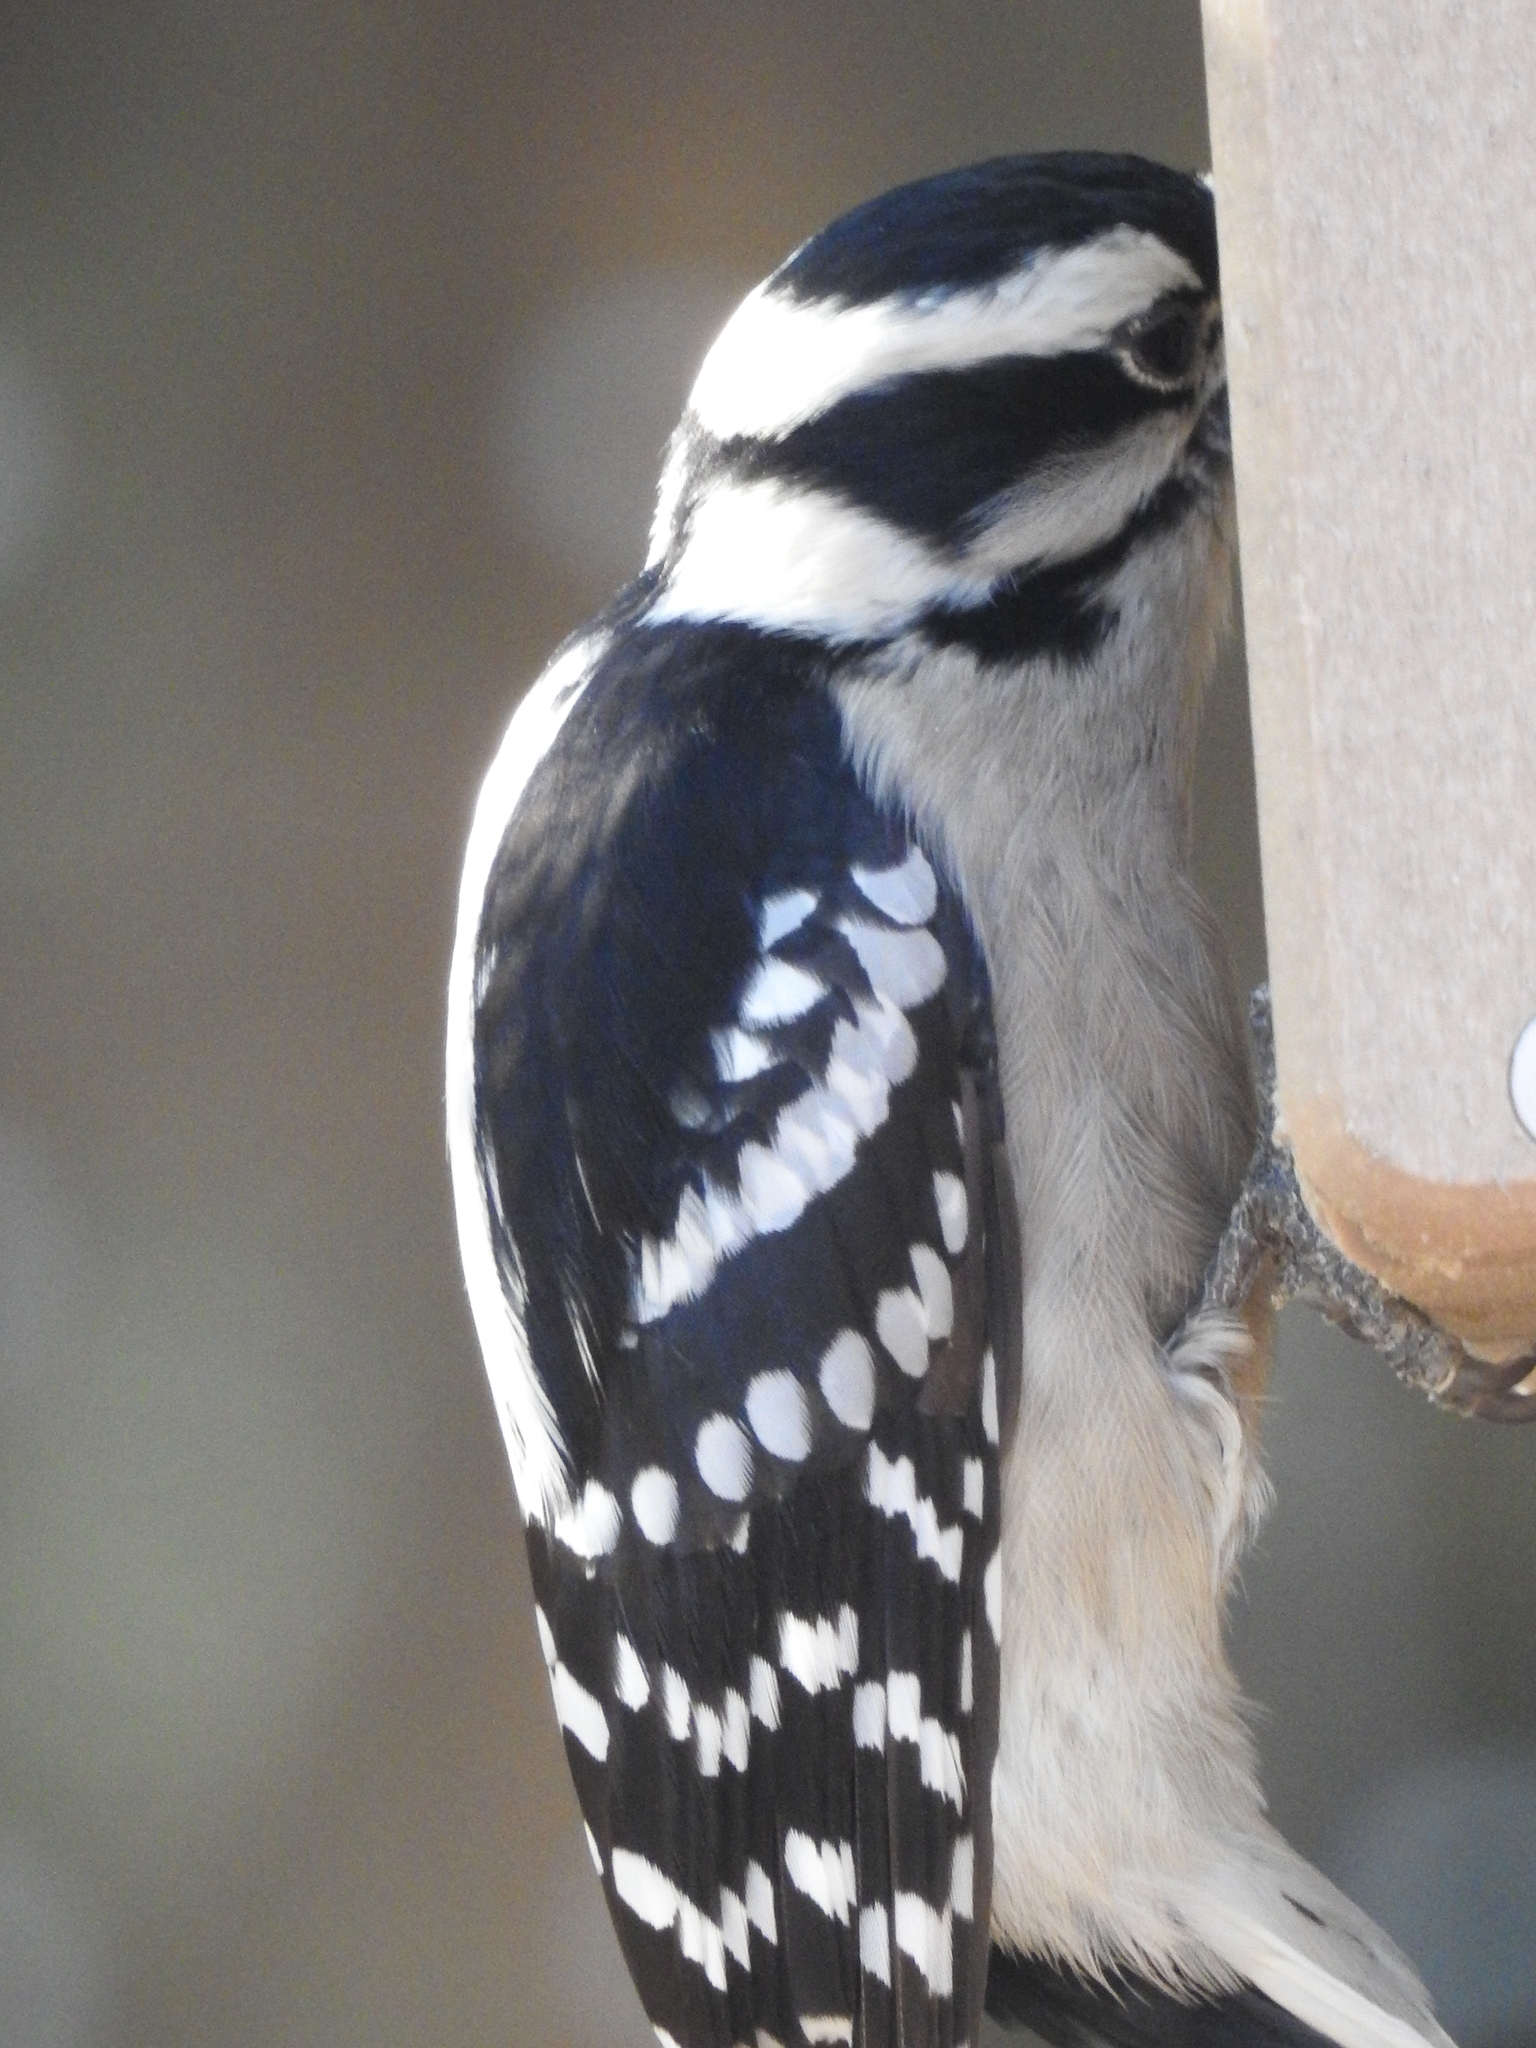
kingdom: Animalia
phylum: Chordata
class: Aves
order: Piciformes
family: Picidae
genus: Dryobates
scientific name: Dryobates pubescens
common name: Downy woodpecker
